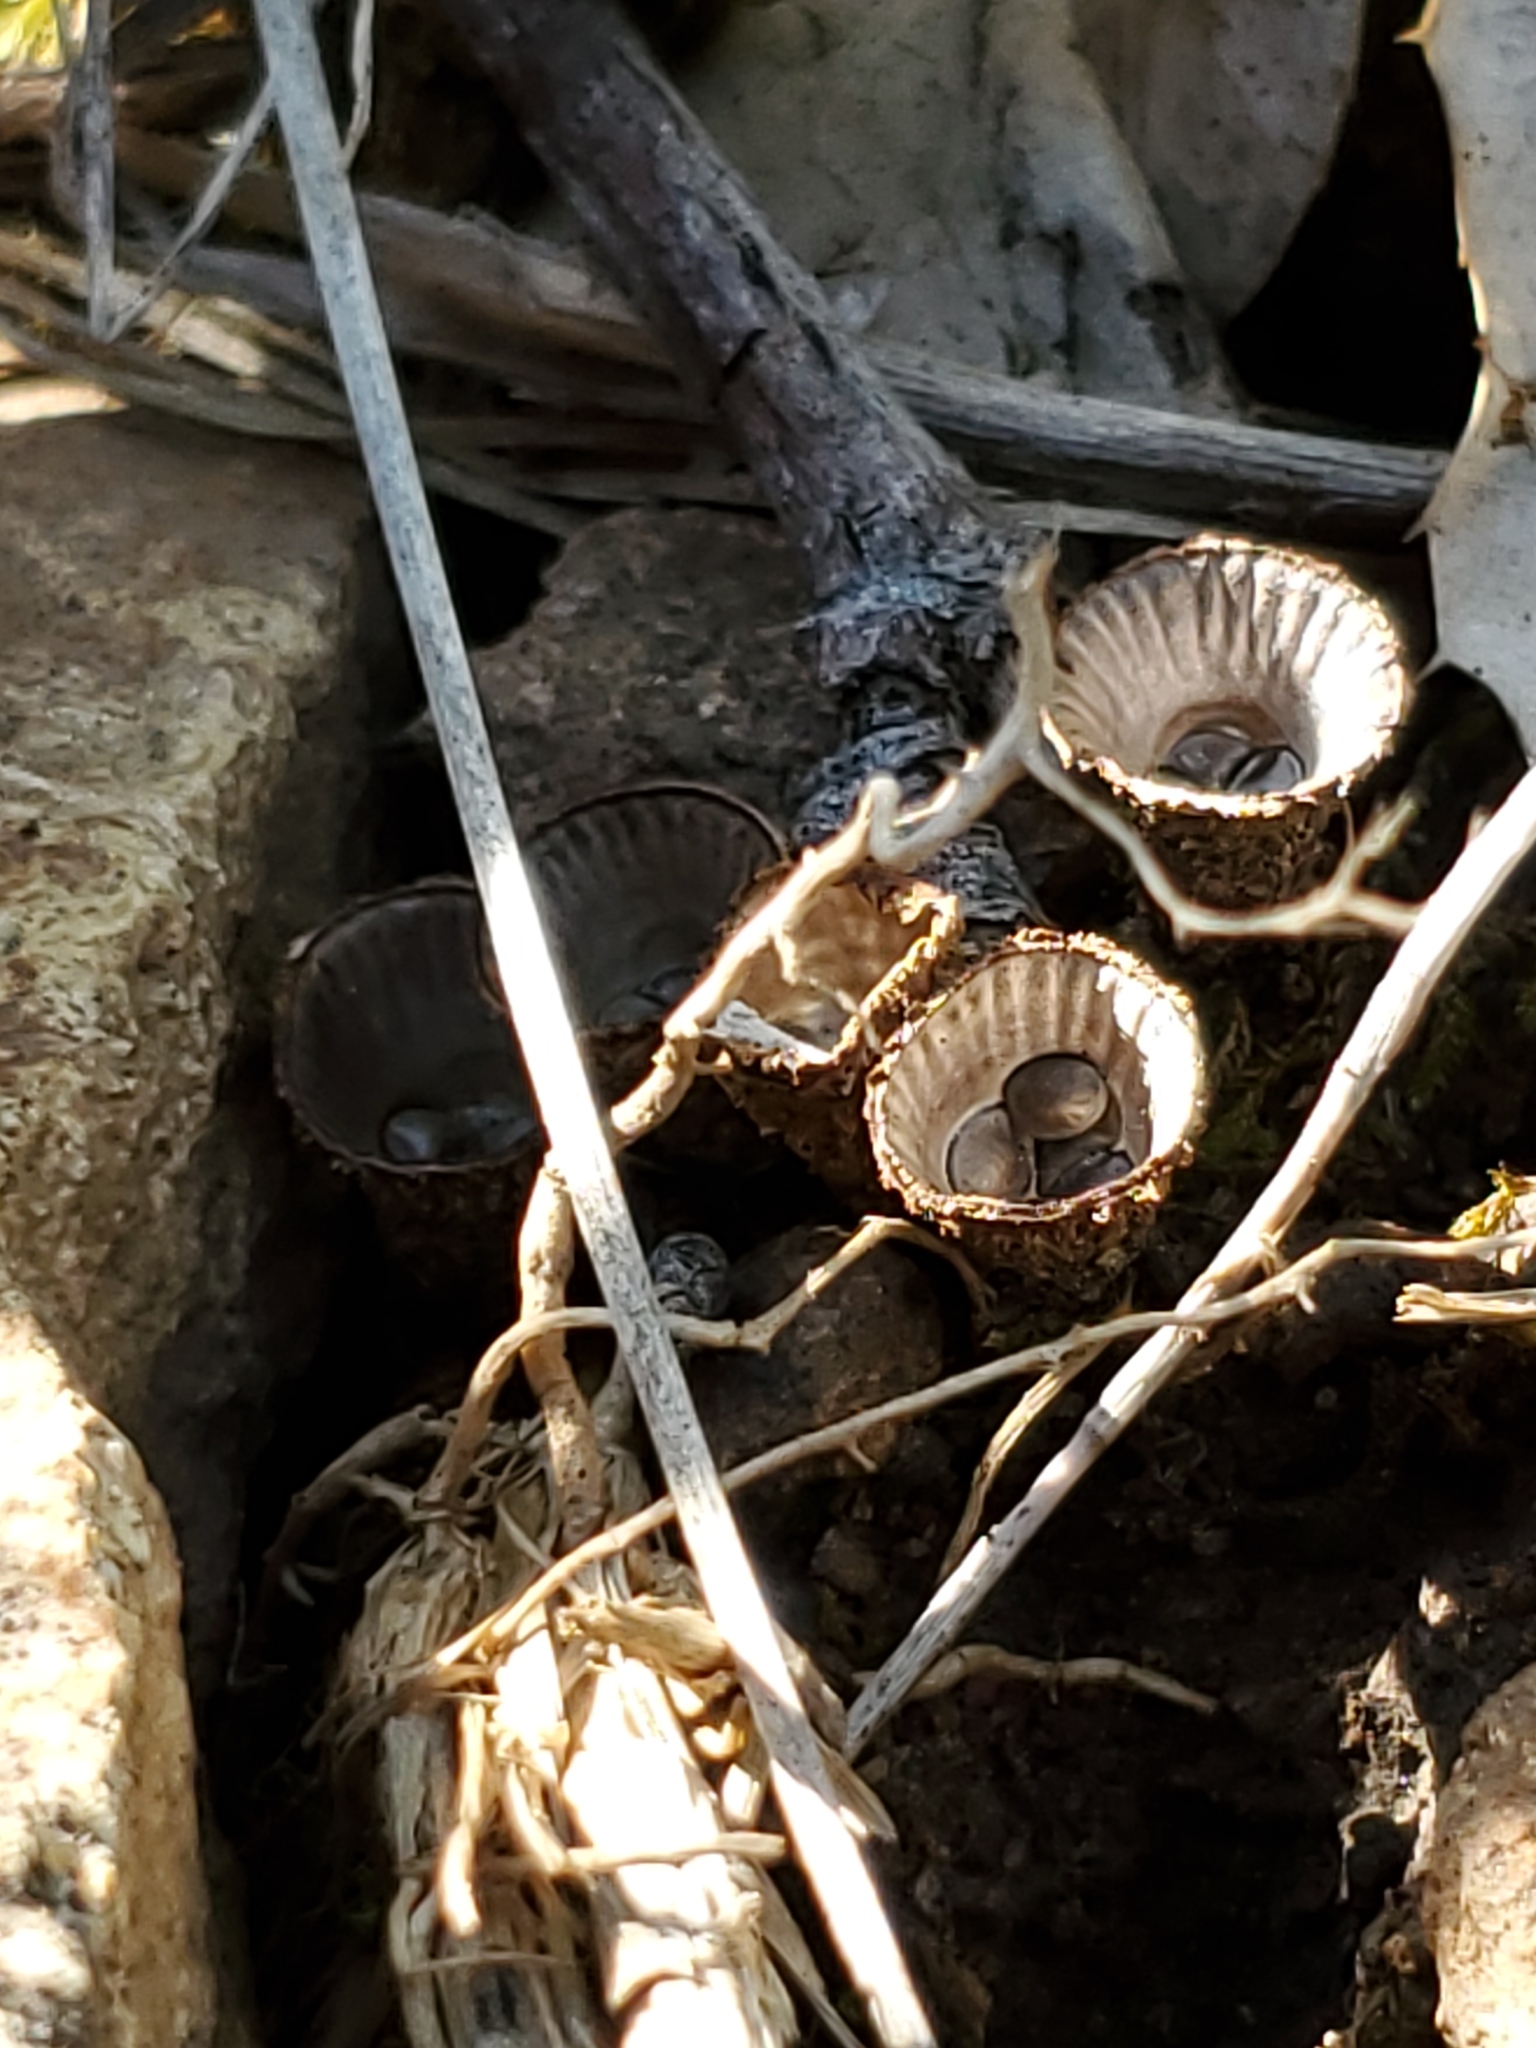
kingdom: Fungi
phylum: Basidiomycota
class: Agaricomycetes
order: Agaricales
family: Agaricaceae
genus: Cyathus
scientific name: Cyathus striatus
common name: Fluted bird's nest
